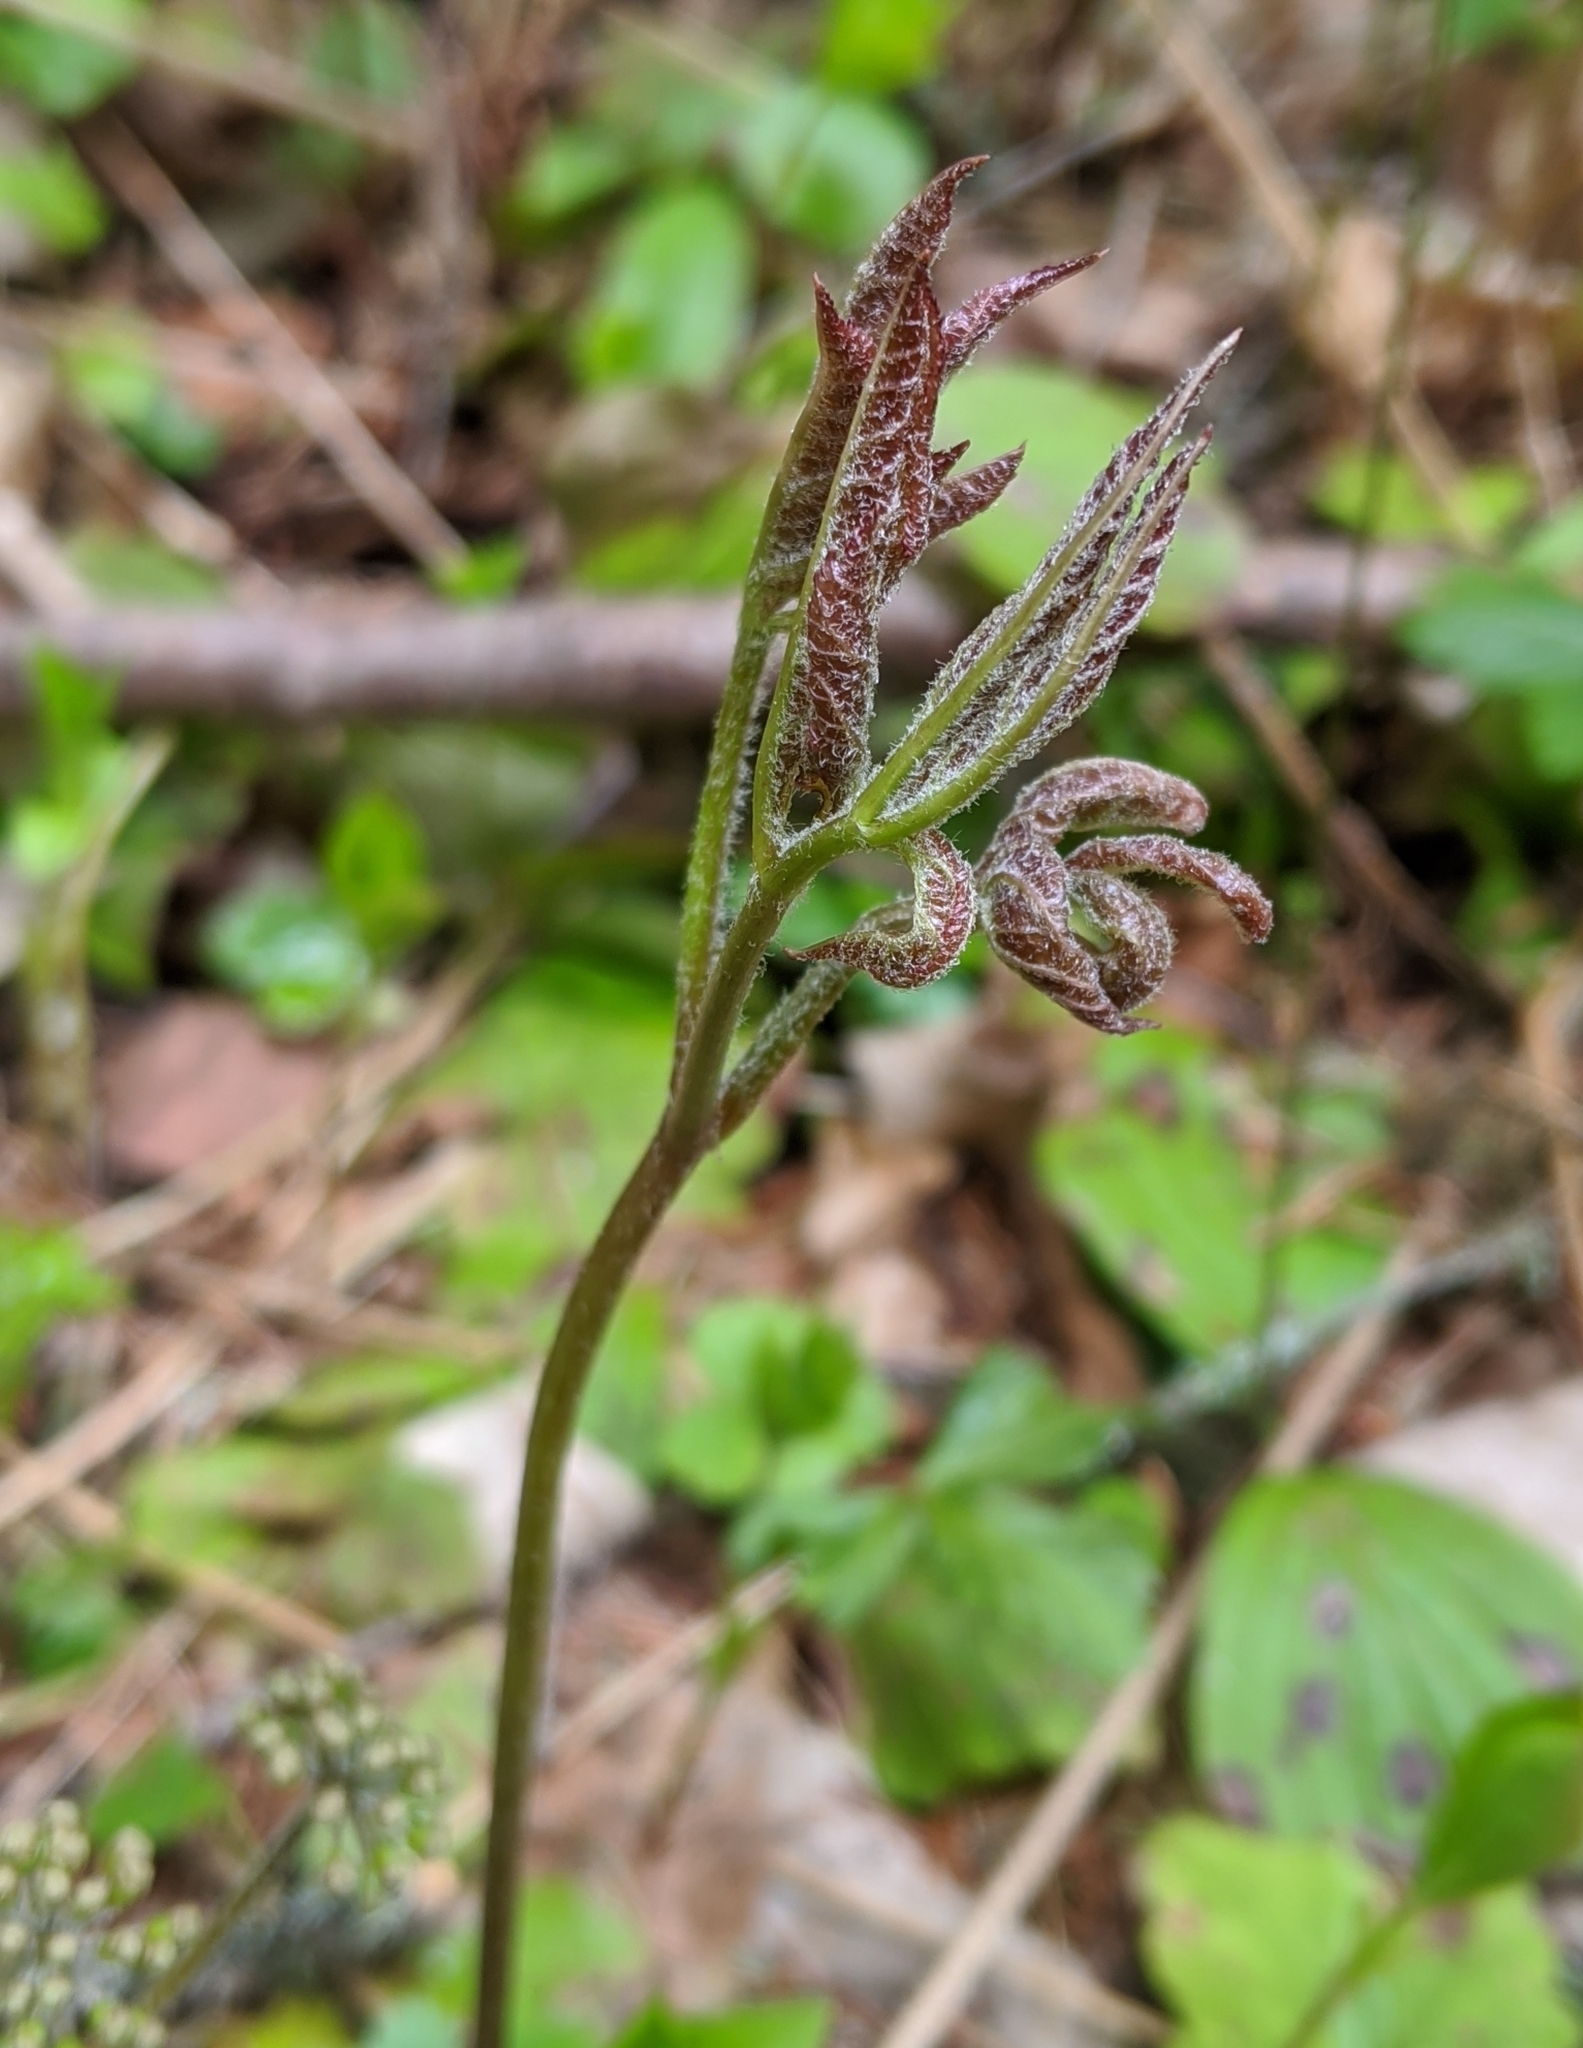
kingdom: Plantae
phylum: Tracheophyta
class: Magnoliopsida
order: Apiales
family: Araliaceae
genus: Aralia
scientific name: Aralia nudicaulis
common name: Wild sarsaparilla
